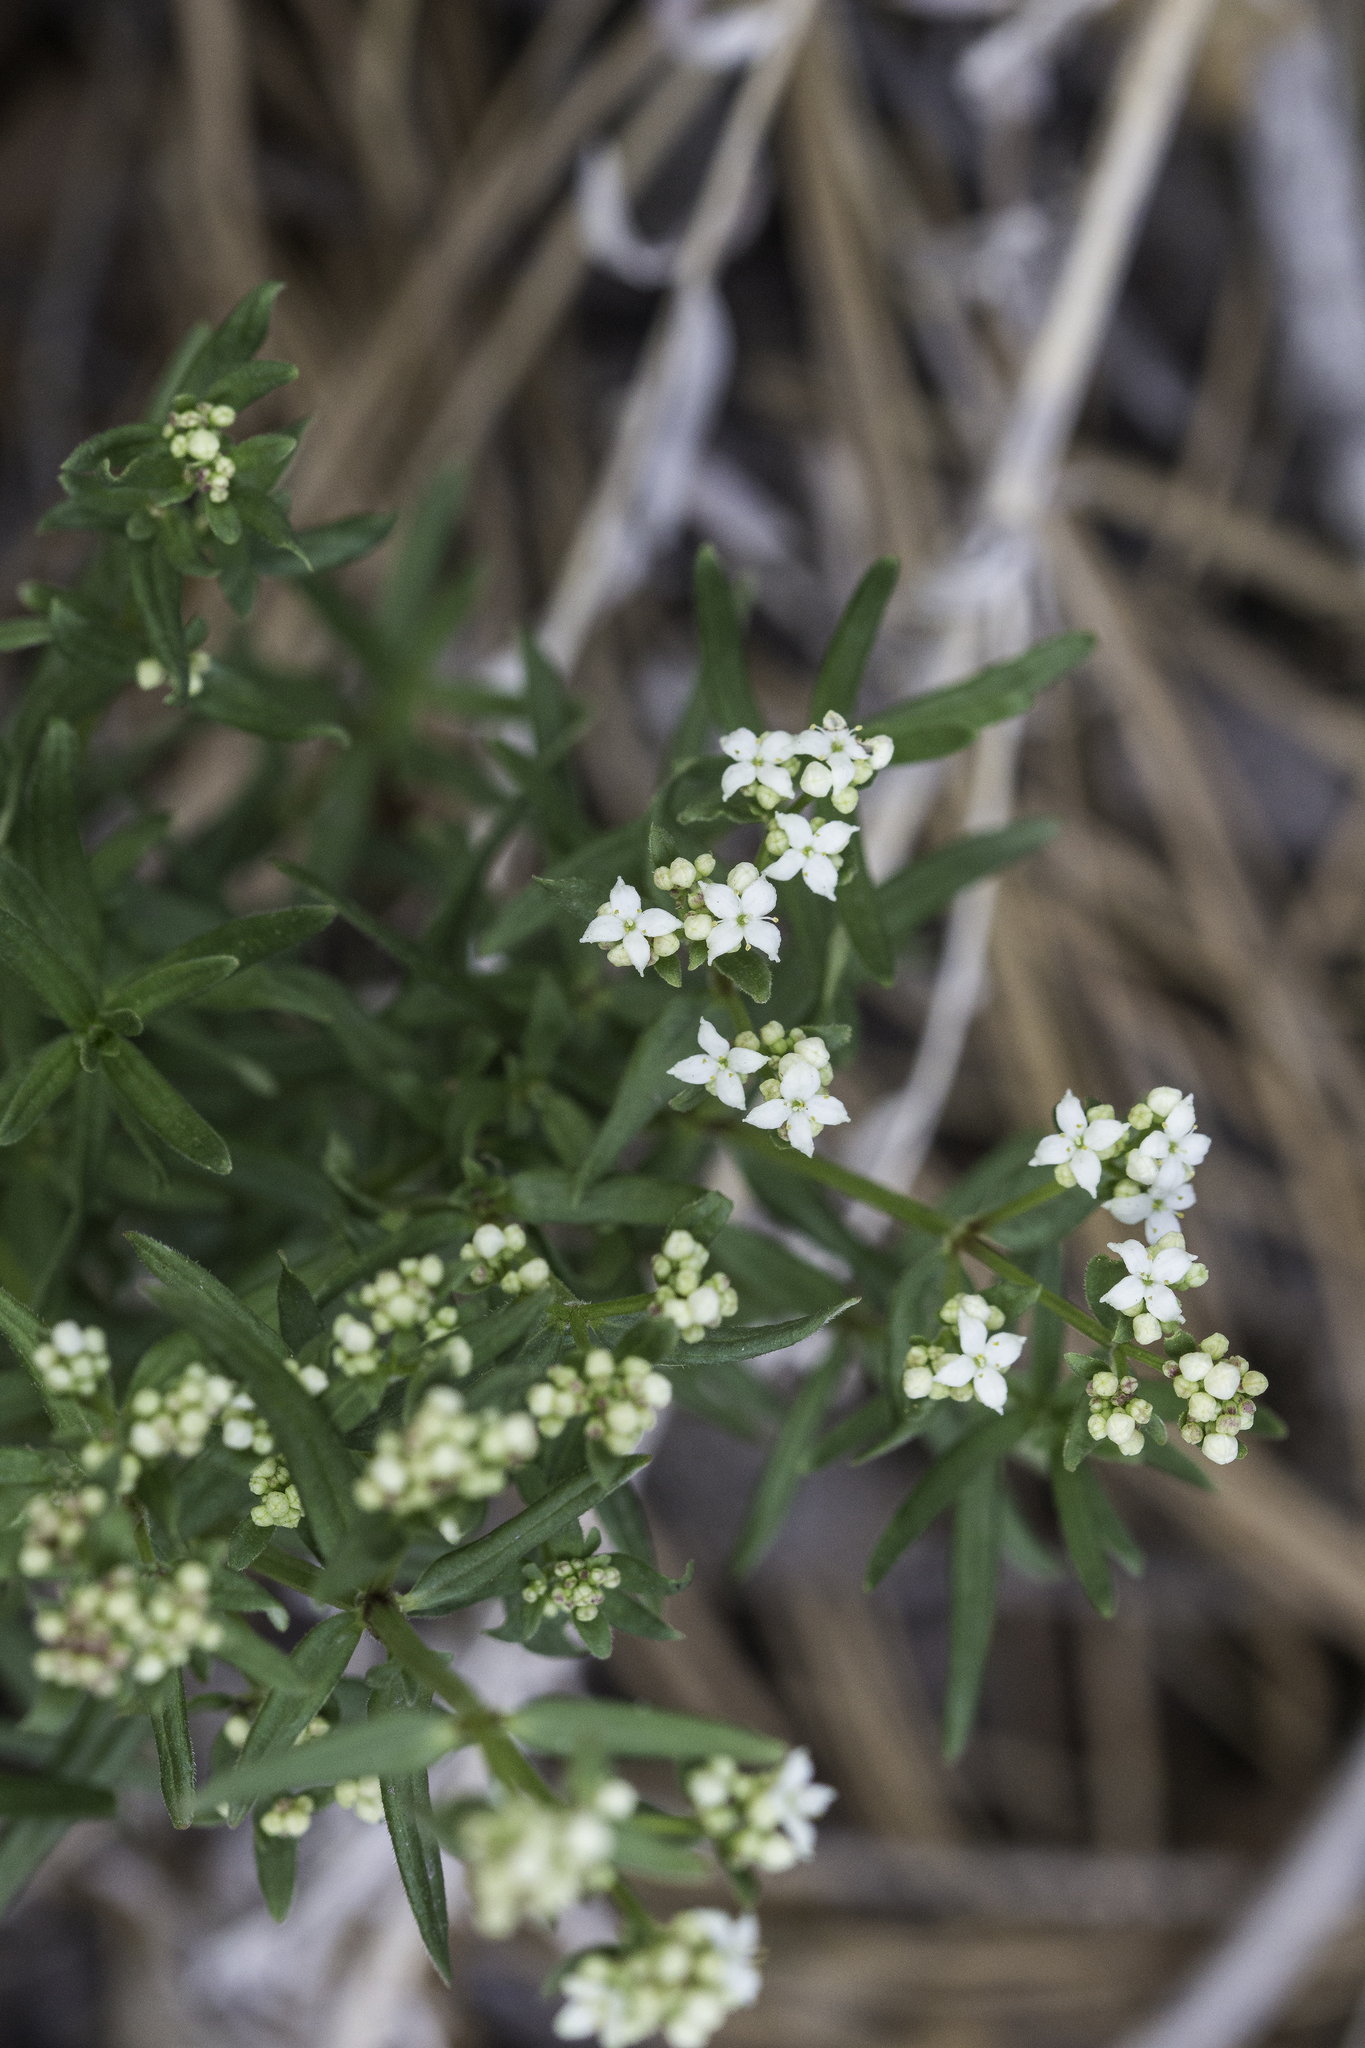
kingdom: Plantae
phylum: Tracheophyta
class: Magnoliopsida
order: Gentianales
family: Rubiaceae
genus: Galium
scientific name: Galium boreale
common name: Northern bedstraw
